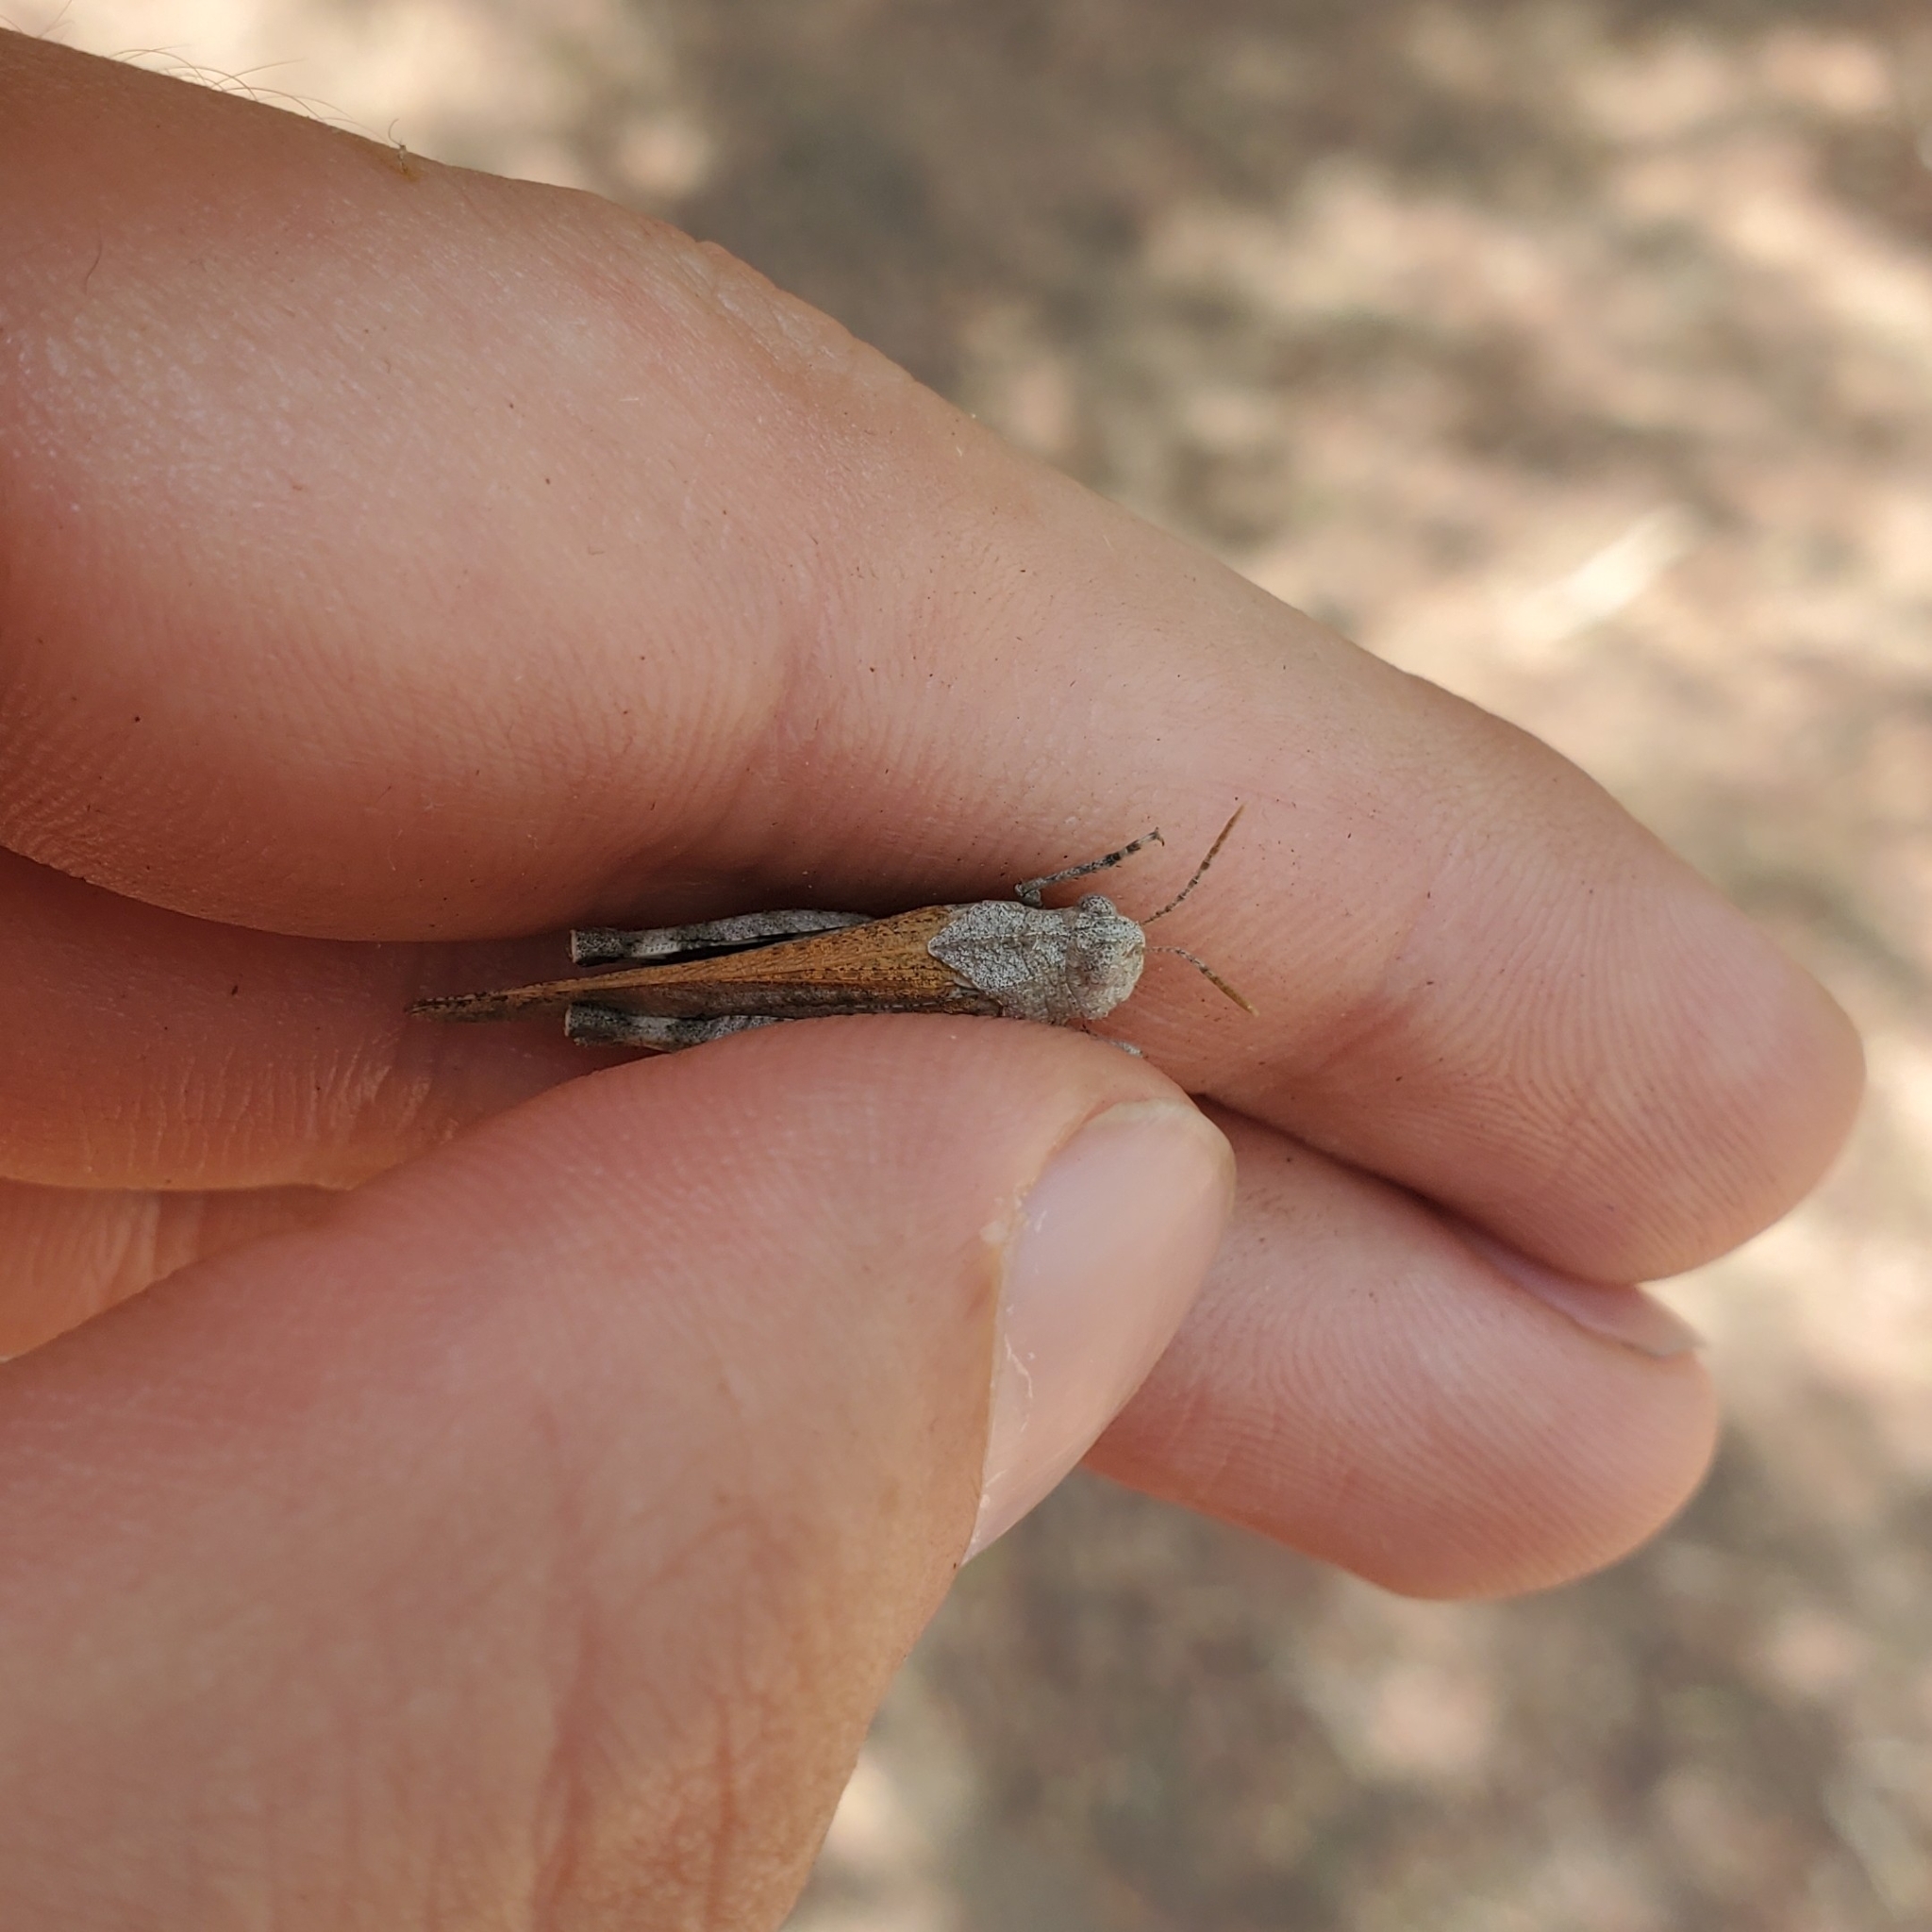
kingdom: Animalia
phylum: Arthropoda
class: Insecta
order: Orthoptera
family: Acrididae
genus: Lactista
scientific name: Lactista gibbosus
